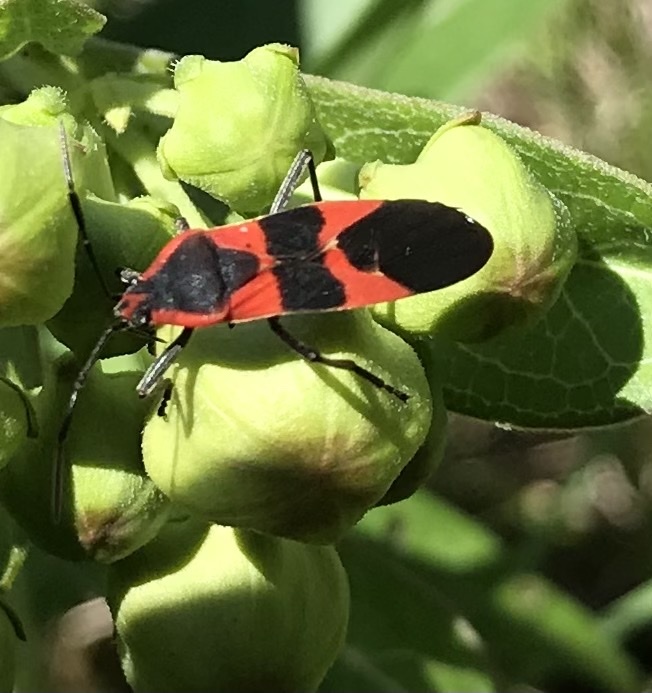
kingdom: Animalia
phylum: Arthropoda
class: Insecta
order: Hemiptera
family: Lygaeidae
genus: Oncopeltus
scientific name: Oncopeltus fasciatus
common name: Large milkweed bug
